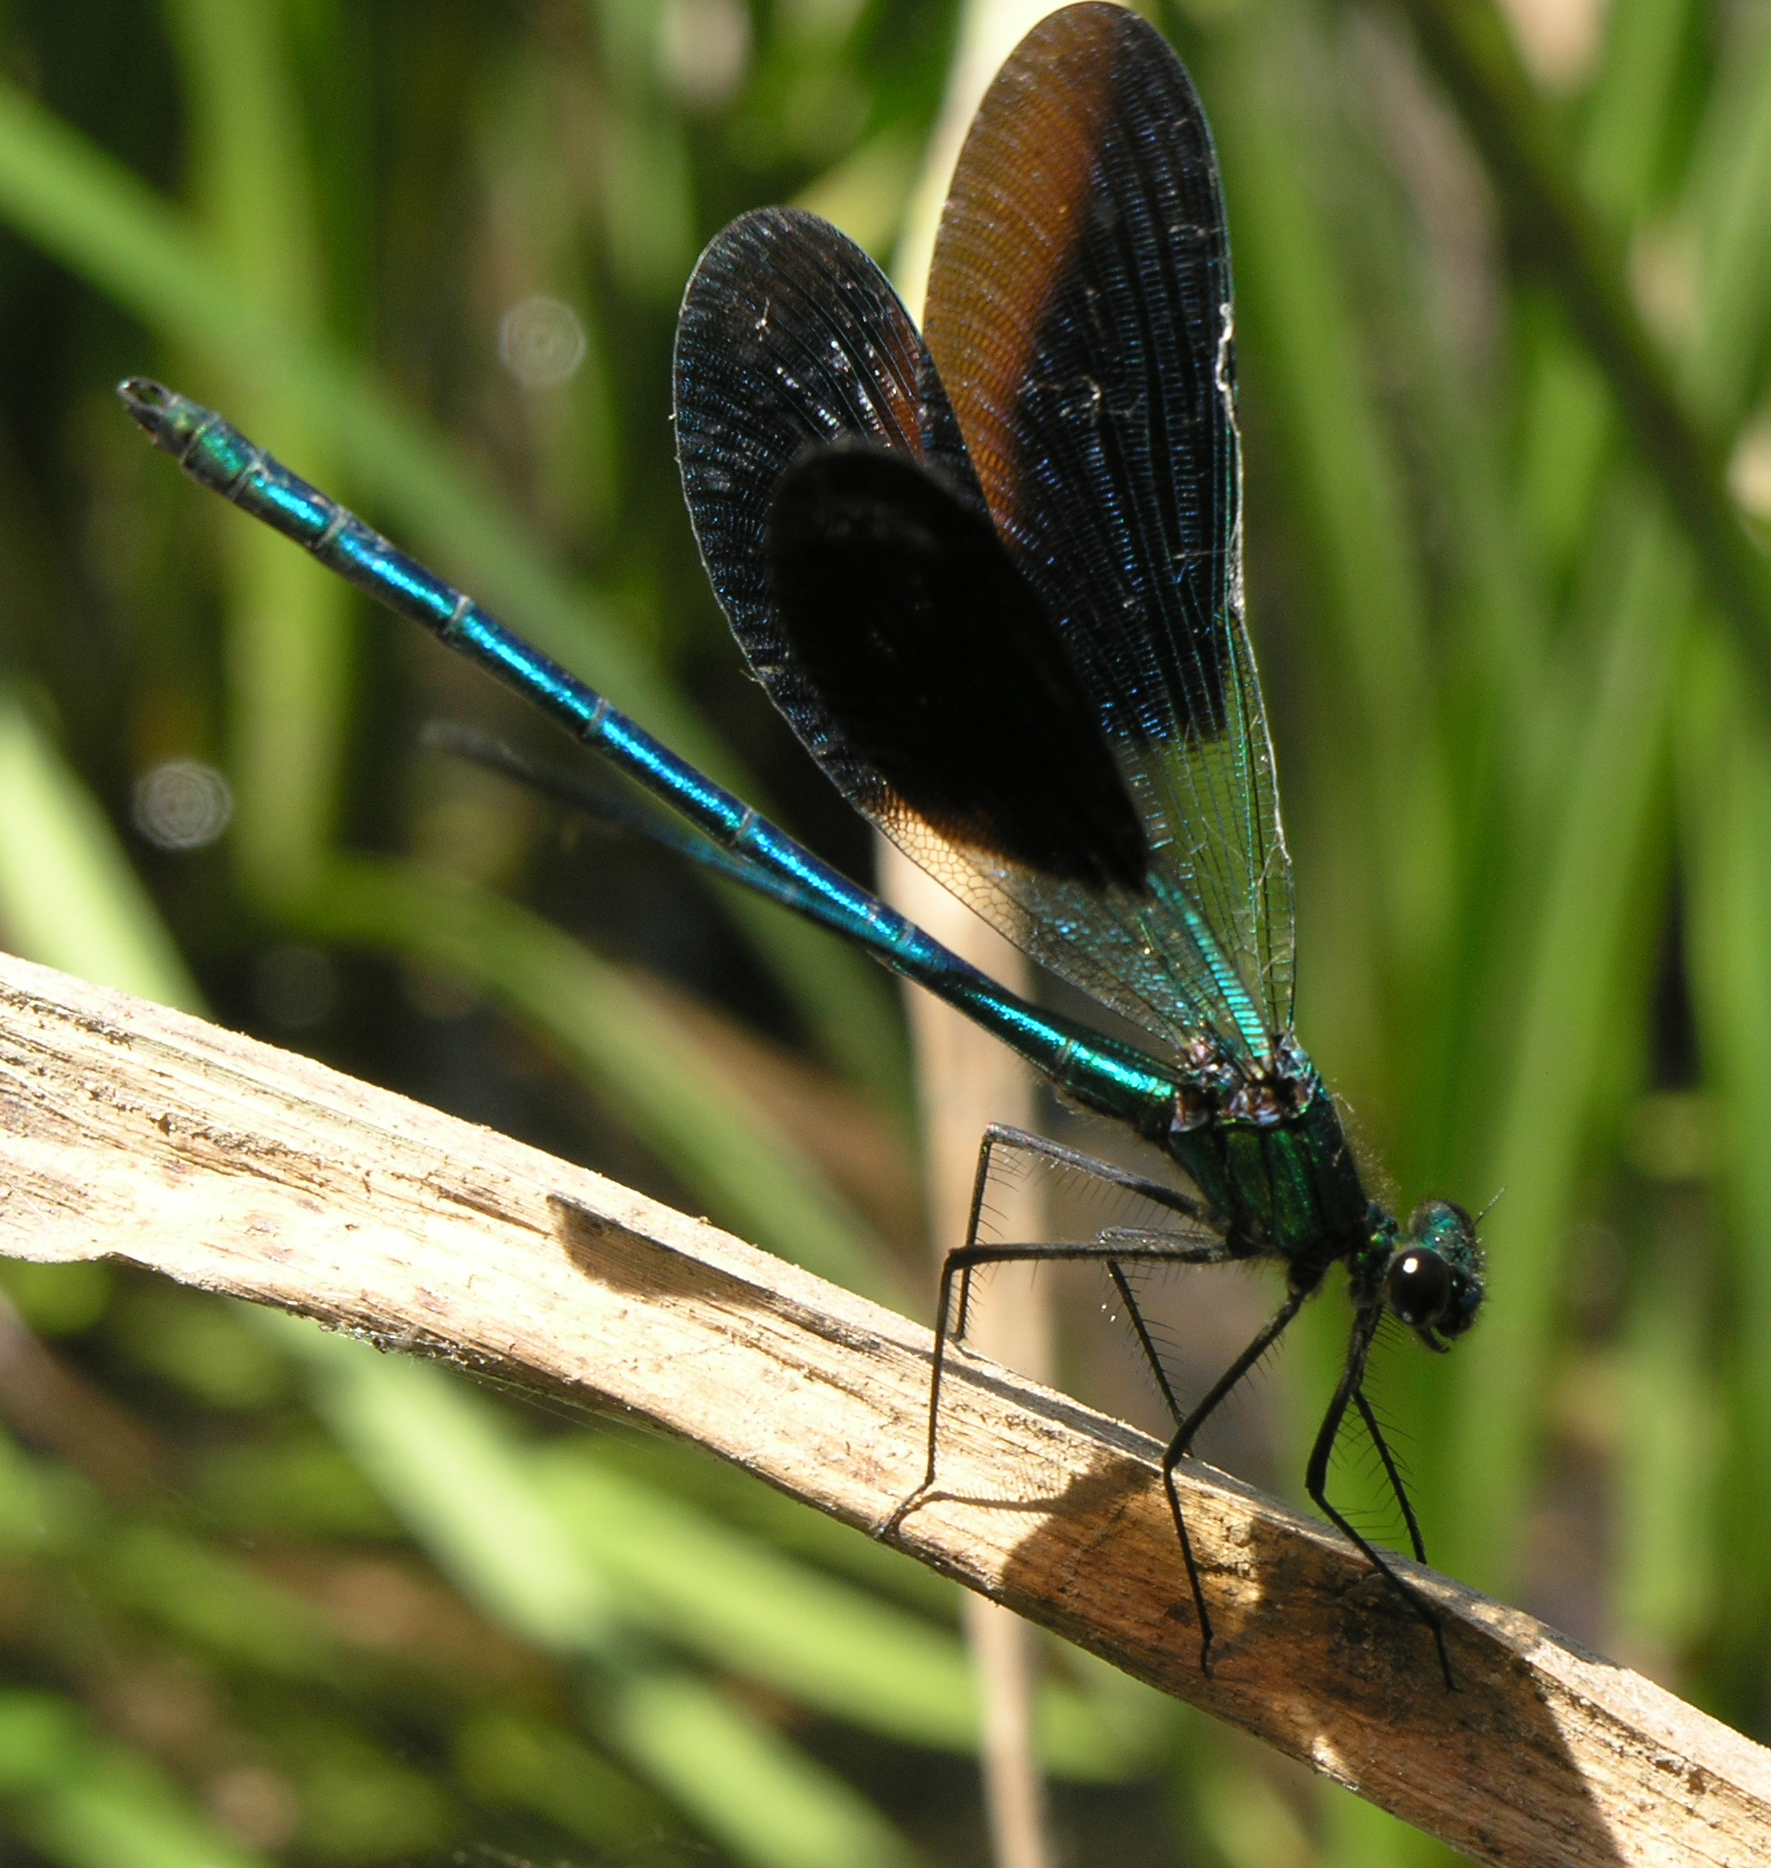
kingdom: Animalia
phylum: Arthropoda
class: Insecta
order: Odonata
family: Calopterygidae
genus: Calopteryx
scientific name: Calopteryx xanthostoma
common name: Western demoiselle
